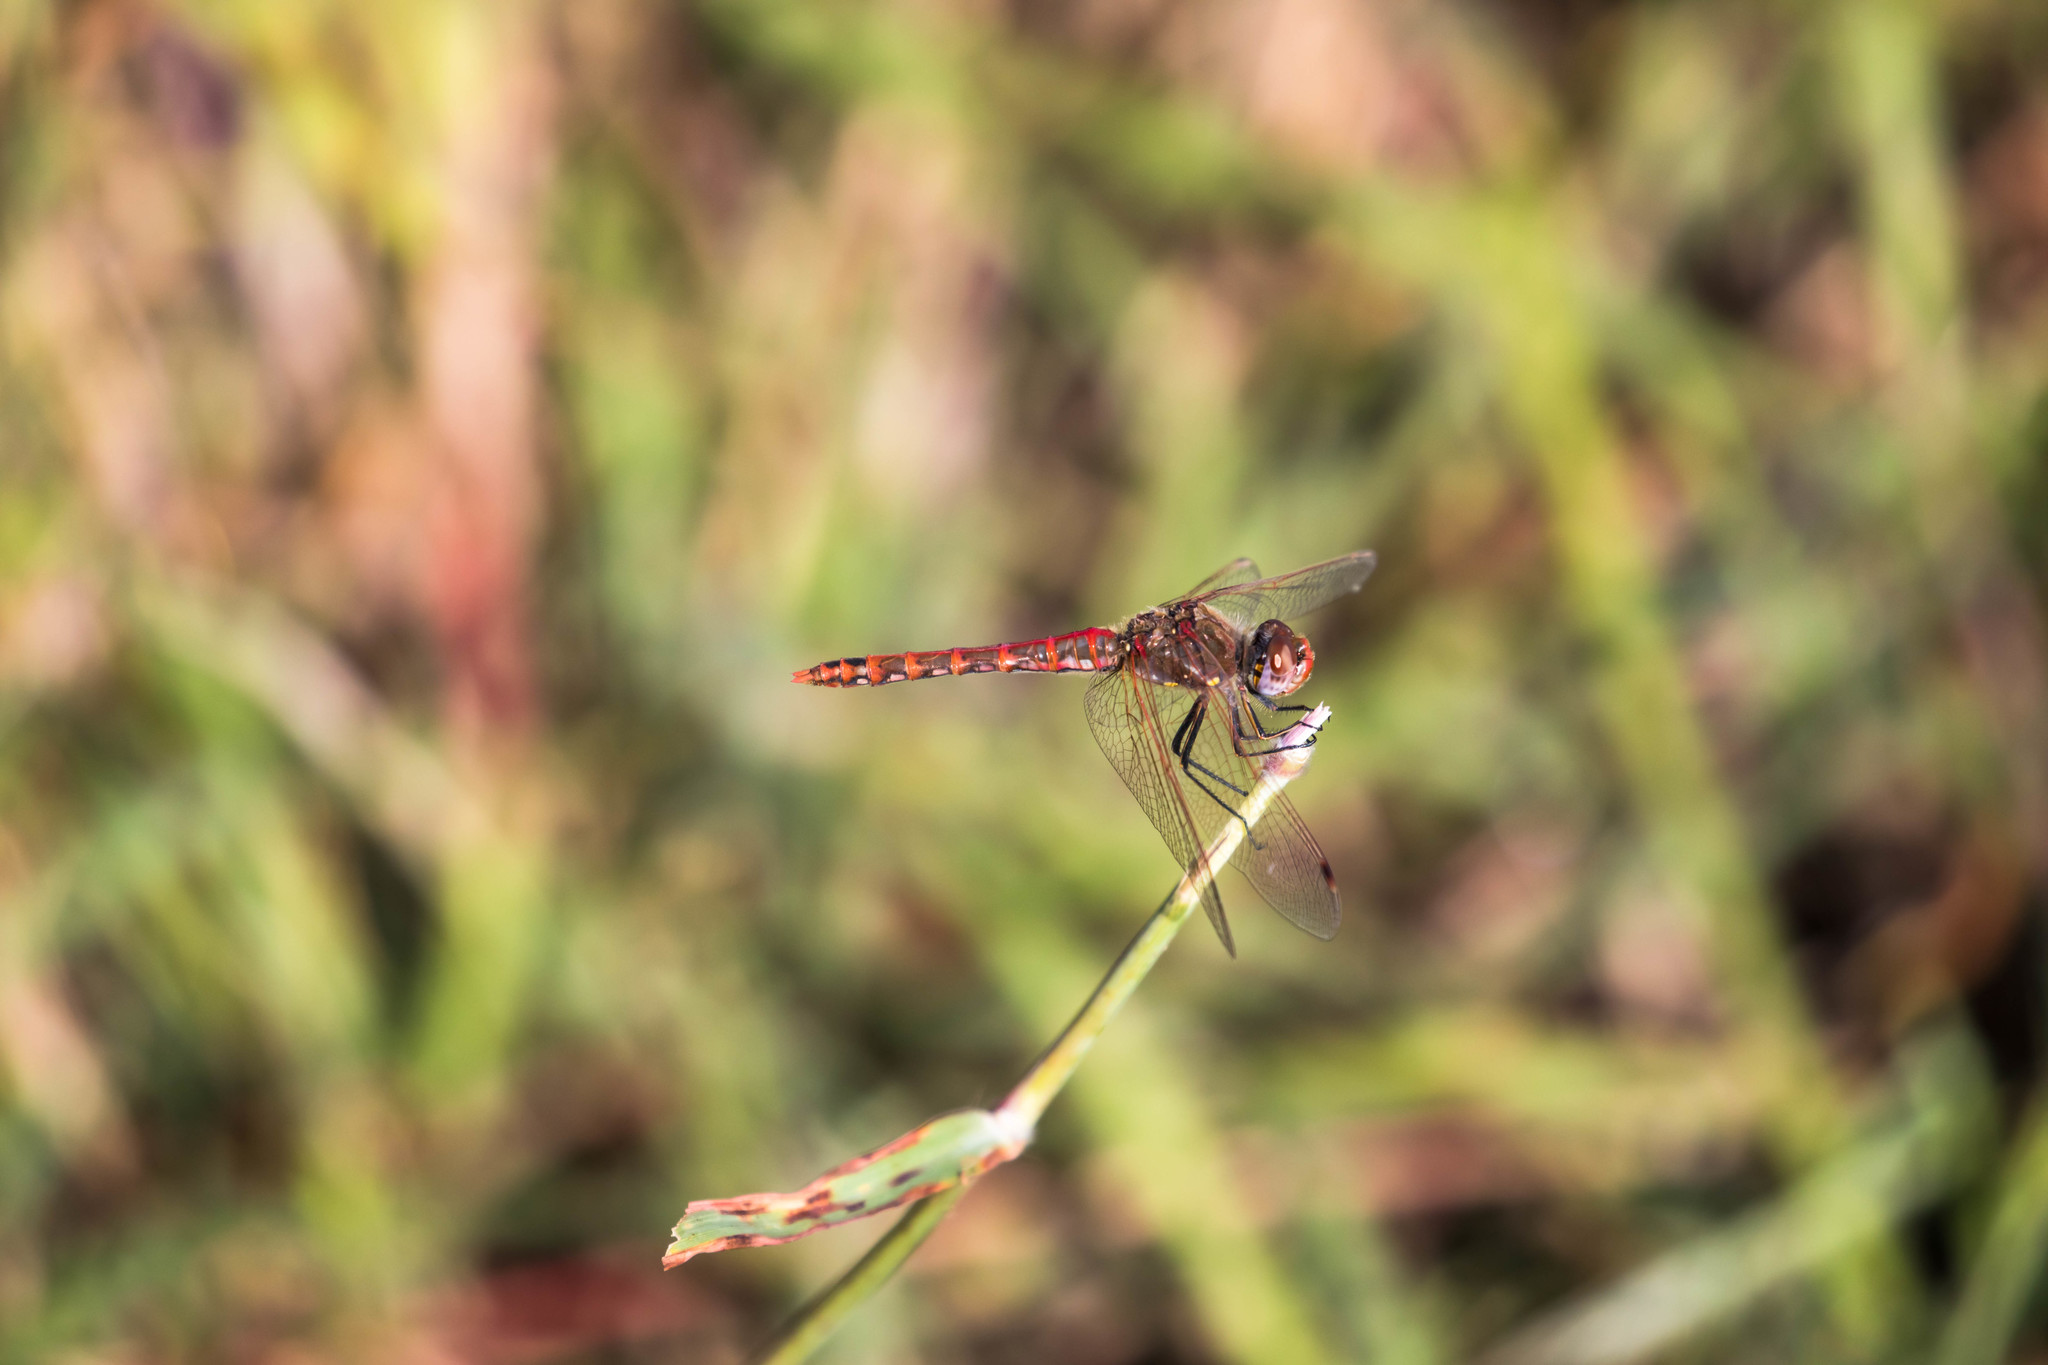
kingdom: Animalia
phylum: Arthropoda
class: Insecta
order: Odonata
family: Libellulidae
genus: Sympetrum
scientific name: Sympetrum corruptum
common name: Variegated meadowhawk
